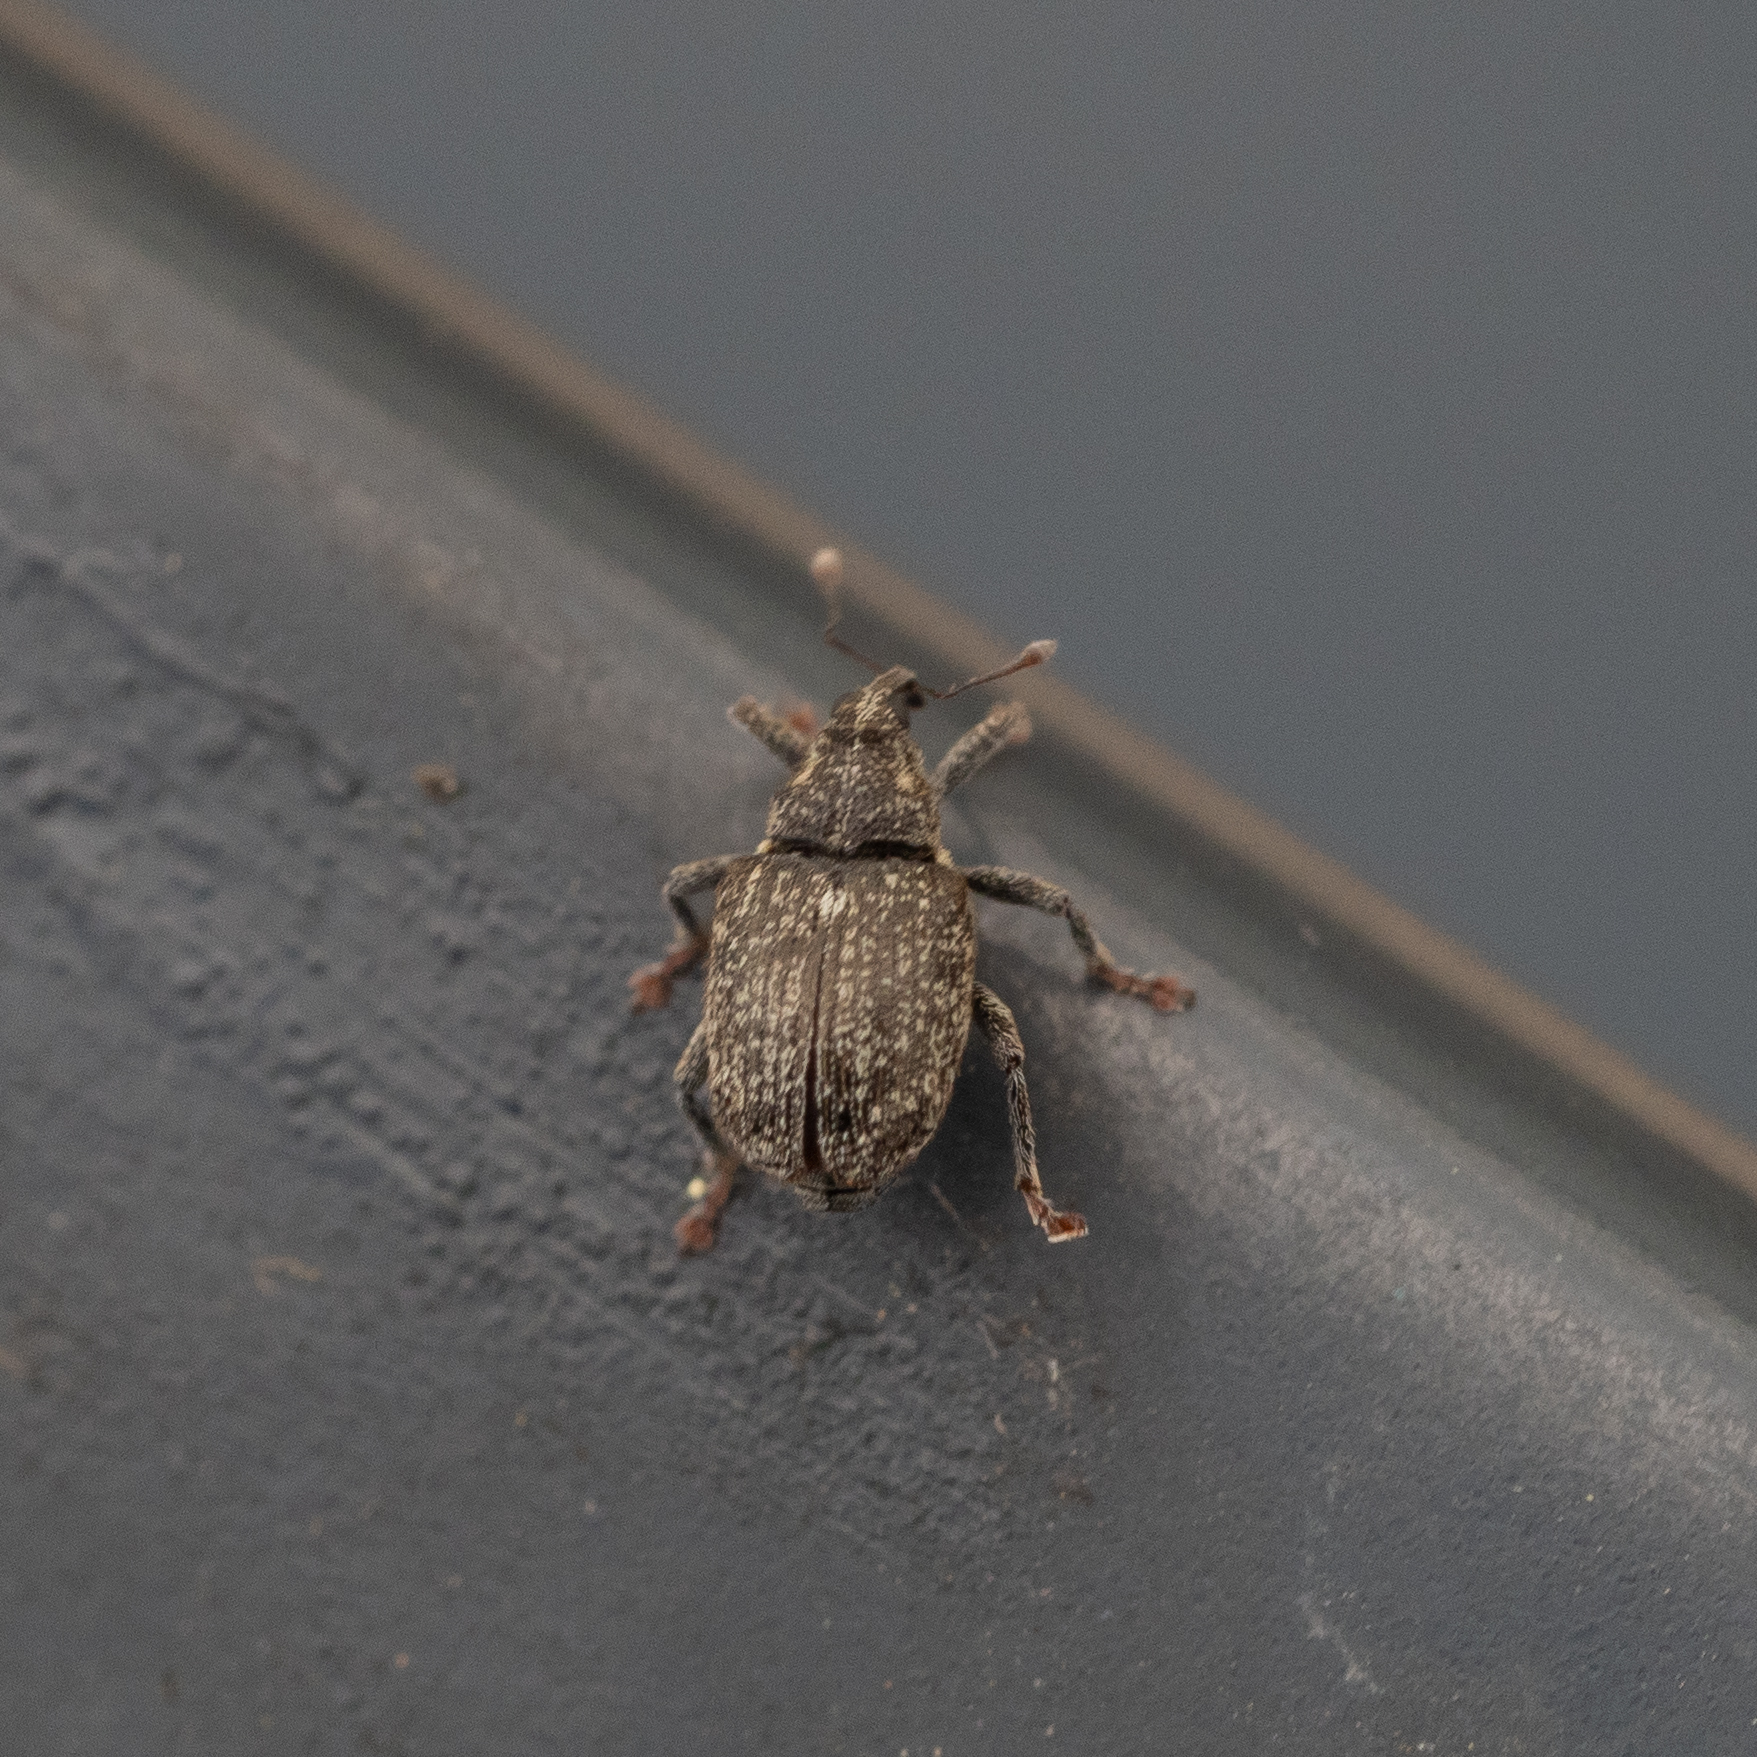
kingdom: Animalia
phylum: Arthropoda
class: Insecta
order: Coleoptera
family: Curculionidae
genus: Ceutorhynchus
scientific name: Ceutorhynchus pallidactylus
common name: Cabbage stem weavil
